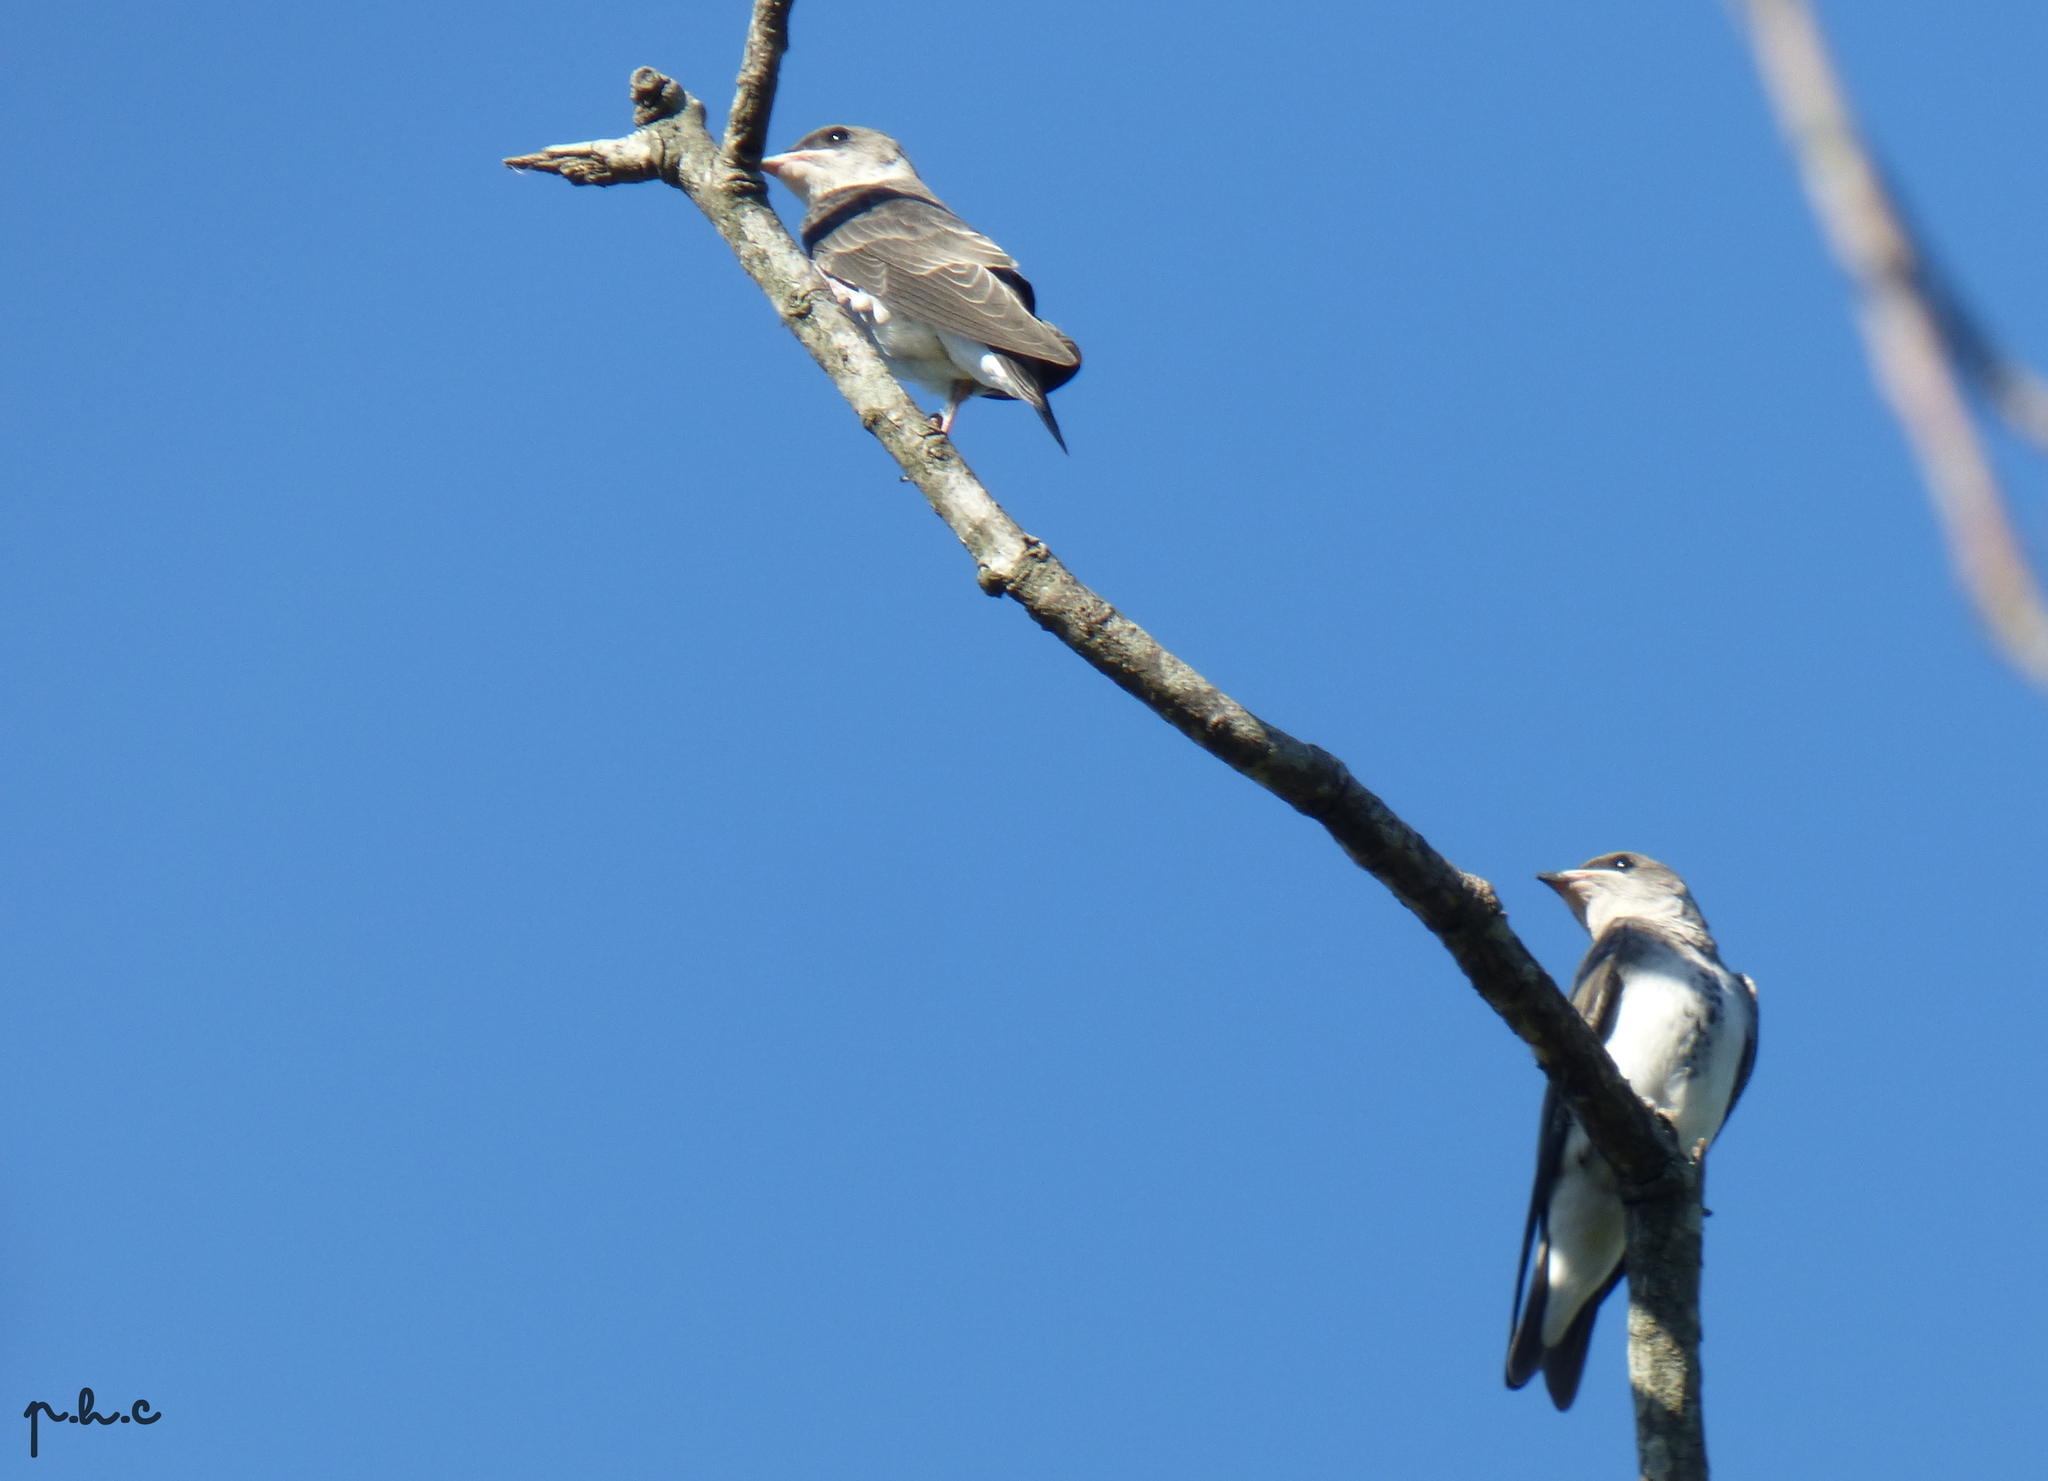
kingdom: Animalia
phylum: Chordata
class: Aves
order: Passeriformes
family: Hirundinidae
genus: Progne
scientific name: Progne tapera
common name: Brown-chested martin
